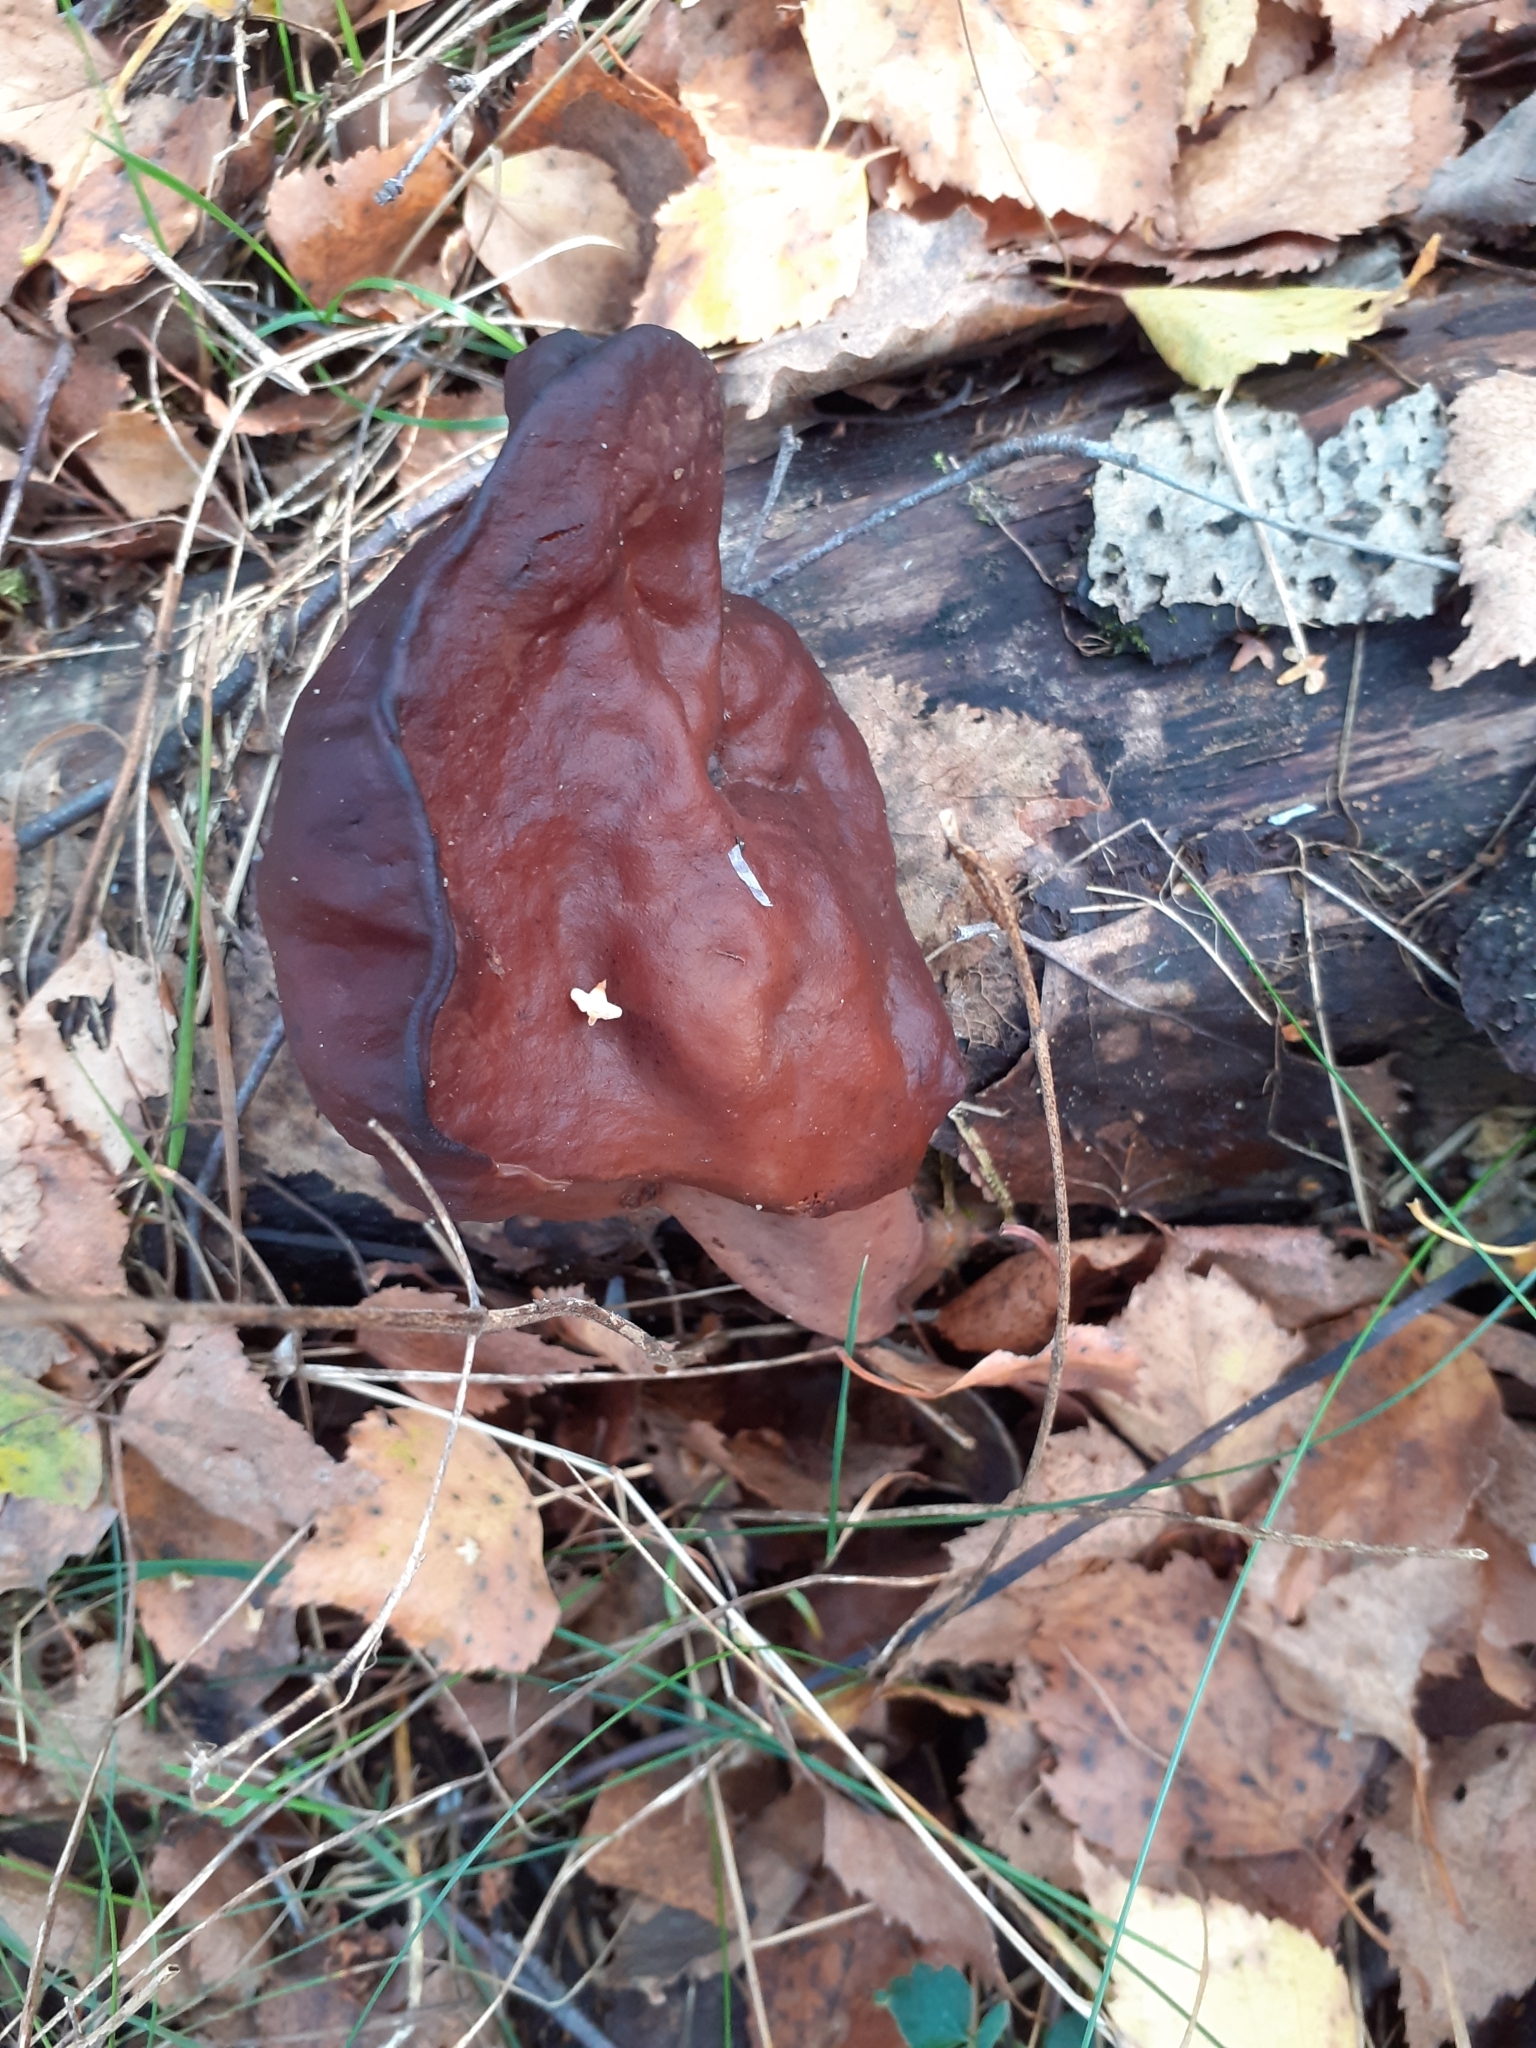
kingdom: Fungi
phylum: Ascomycota
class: Pezizomycetes
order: Pezizales
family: Discinaceae
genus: Gyromitra
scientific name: Gyromitra infula
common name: Pouched false morel
